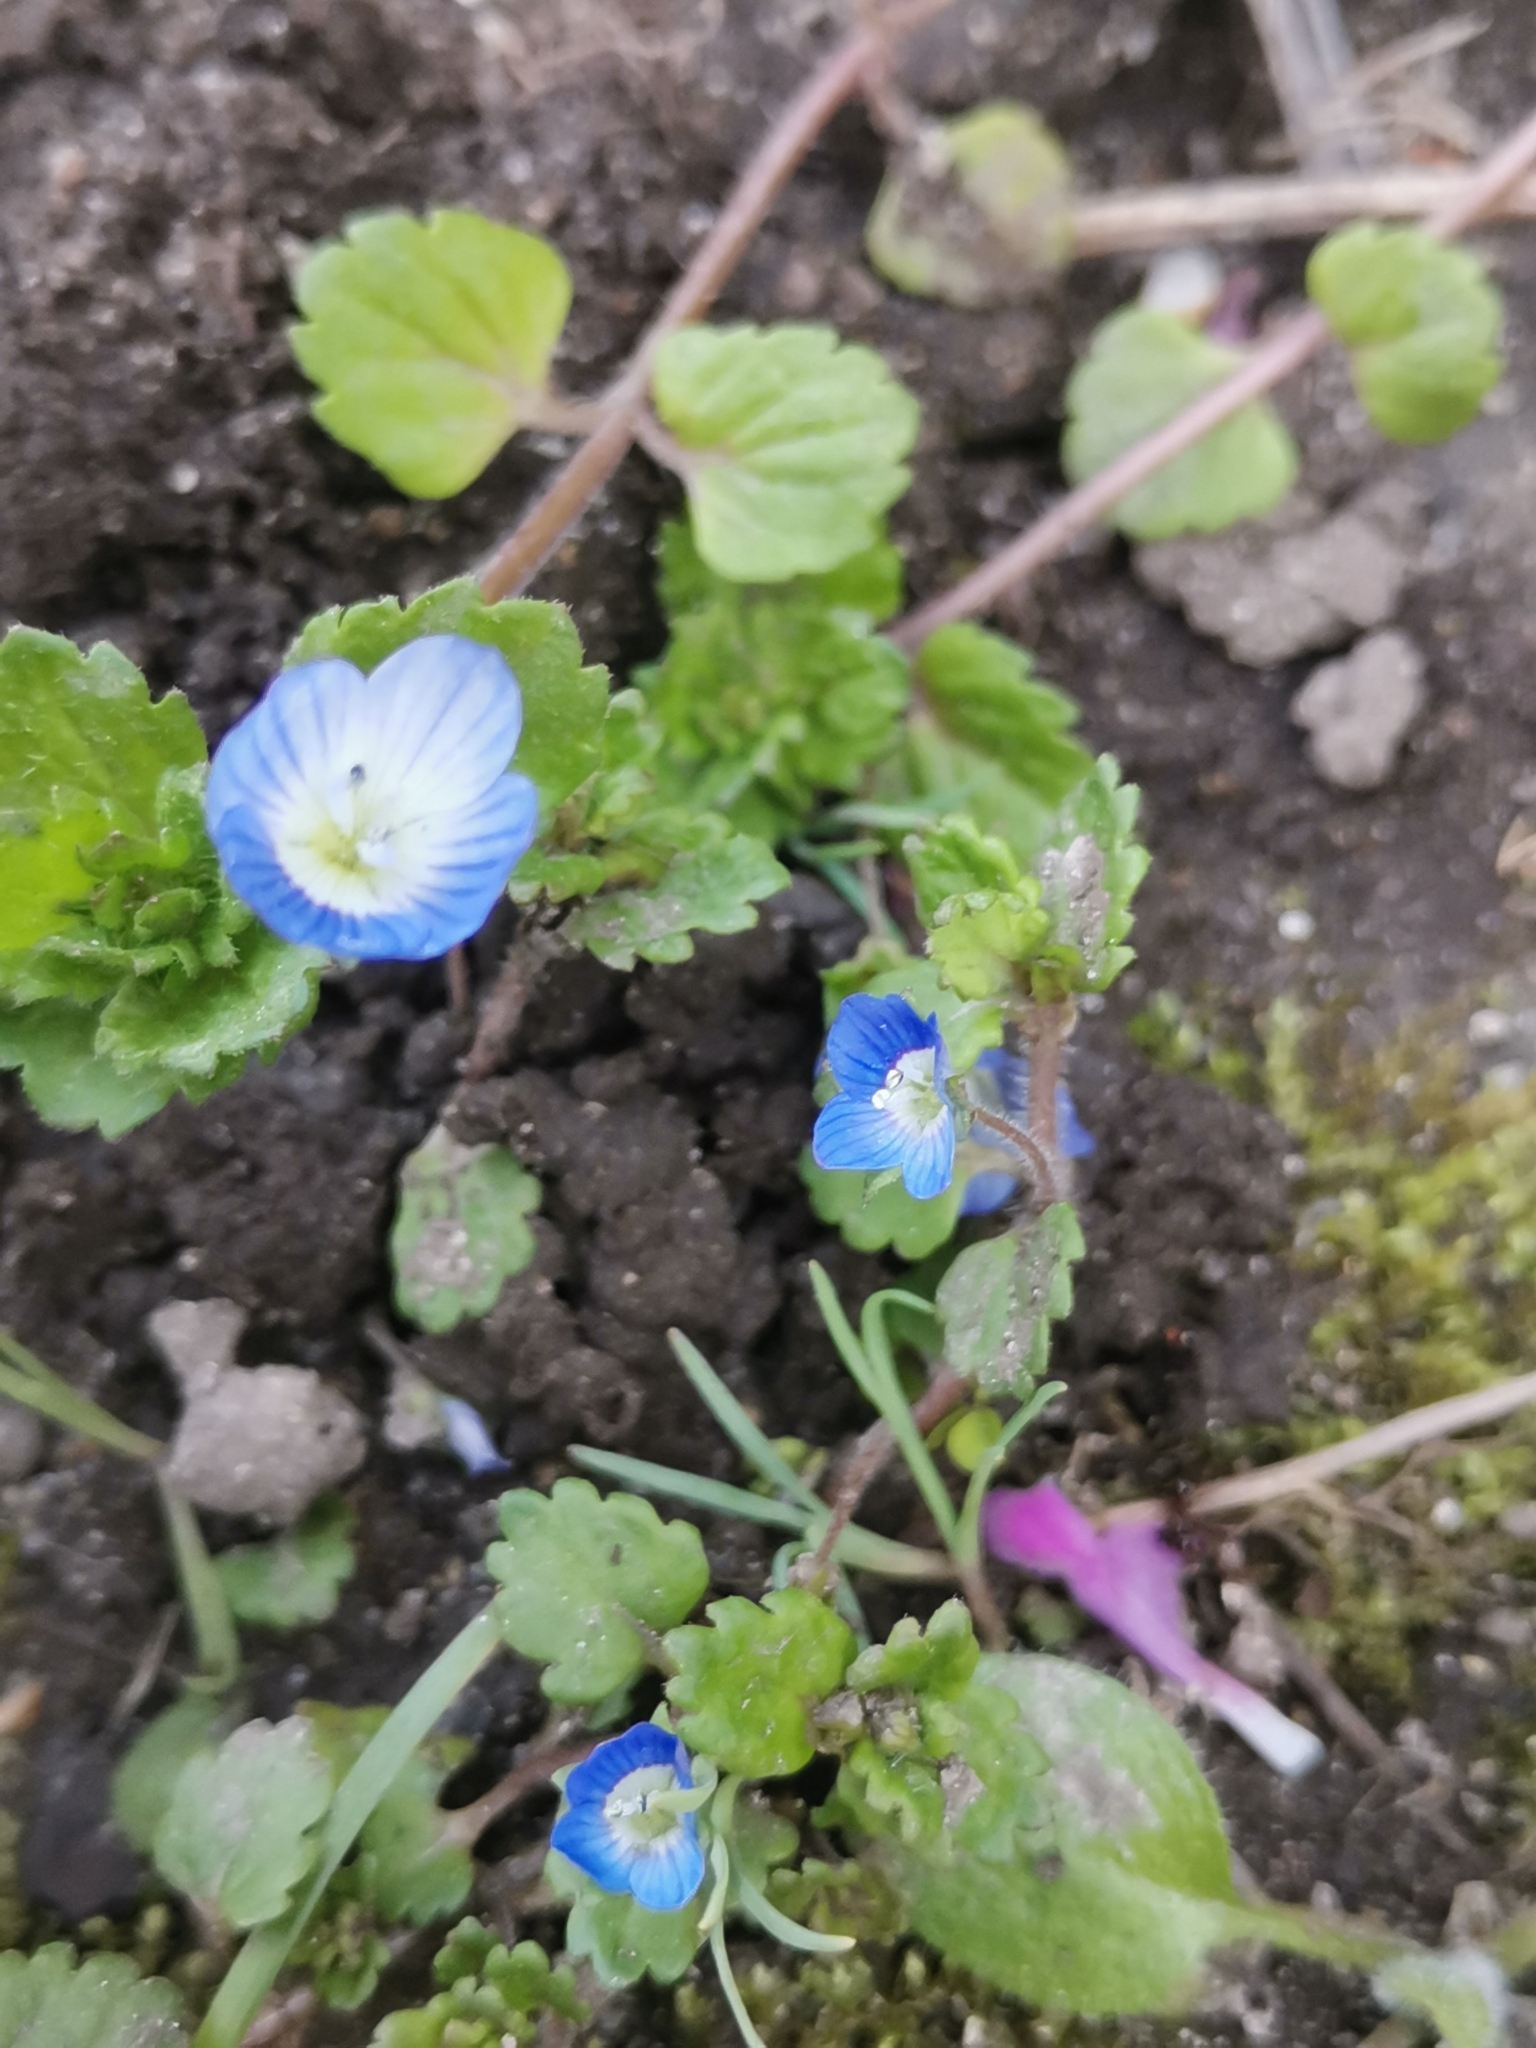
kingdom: Plantae
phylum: Tracheophyta
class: Magnoliopsida
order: Lamiales
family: Plantaginaceae
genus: Veronica
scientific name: Veronica polita
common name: Grey field-speedwell
